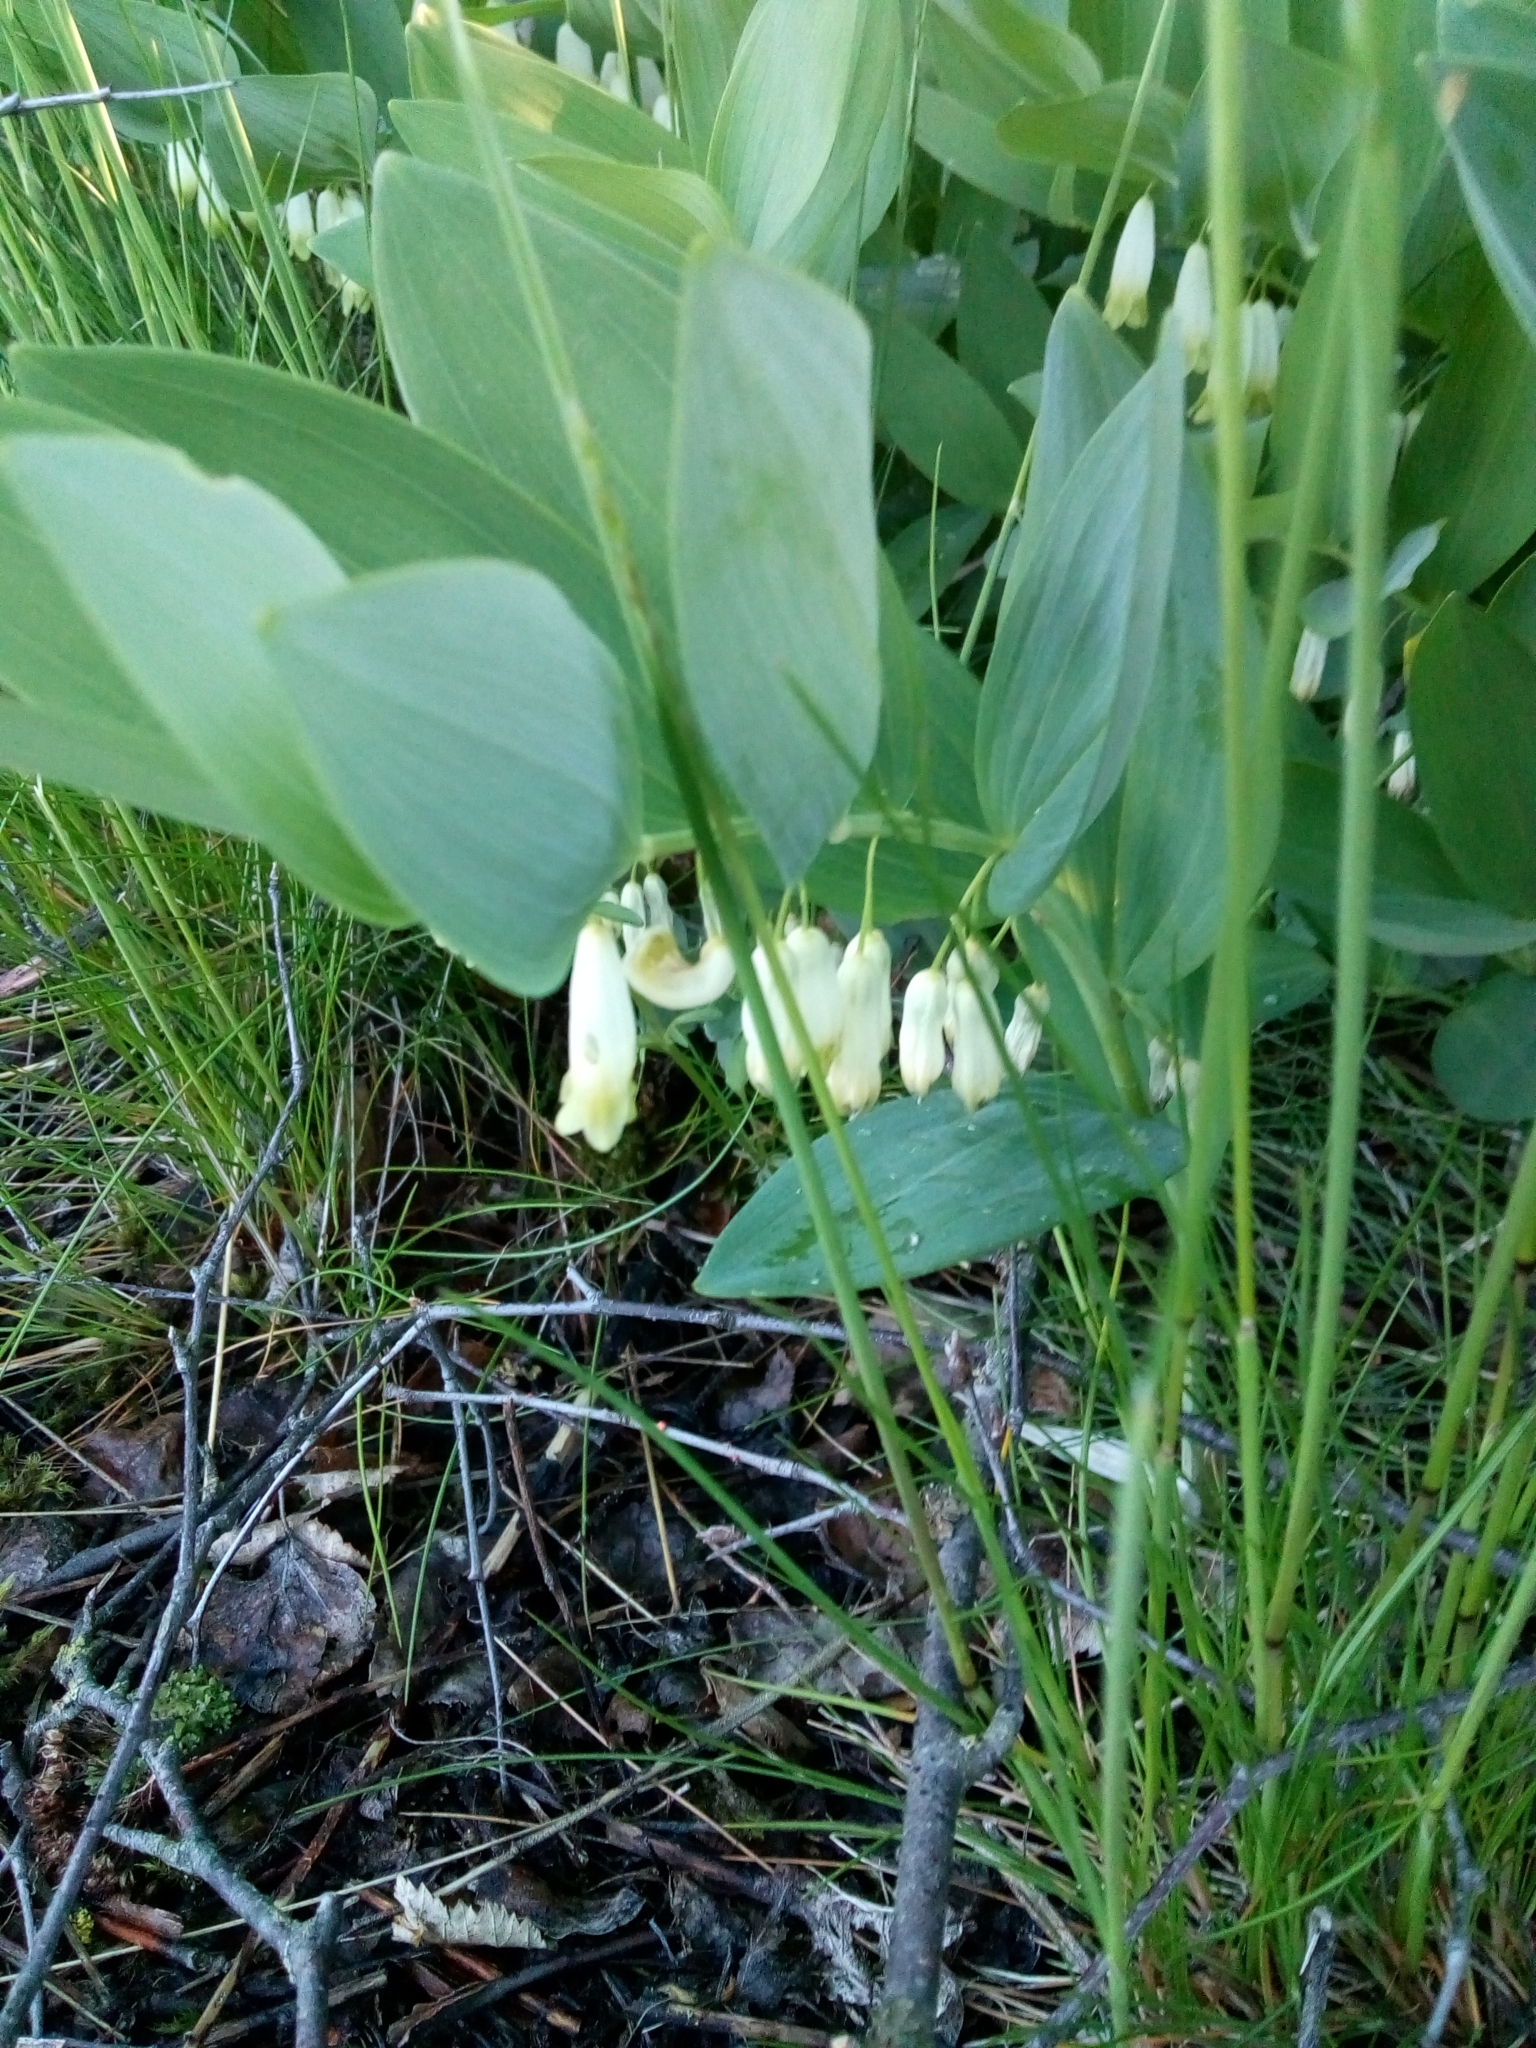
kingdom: Plantae
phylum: Tracheophyta
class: Liliopsida
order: Asparagales
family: Asparagaceae
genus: Polygonatum
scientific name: Polygonatum odoratum
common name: Angular solomon's-seal
